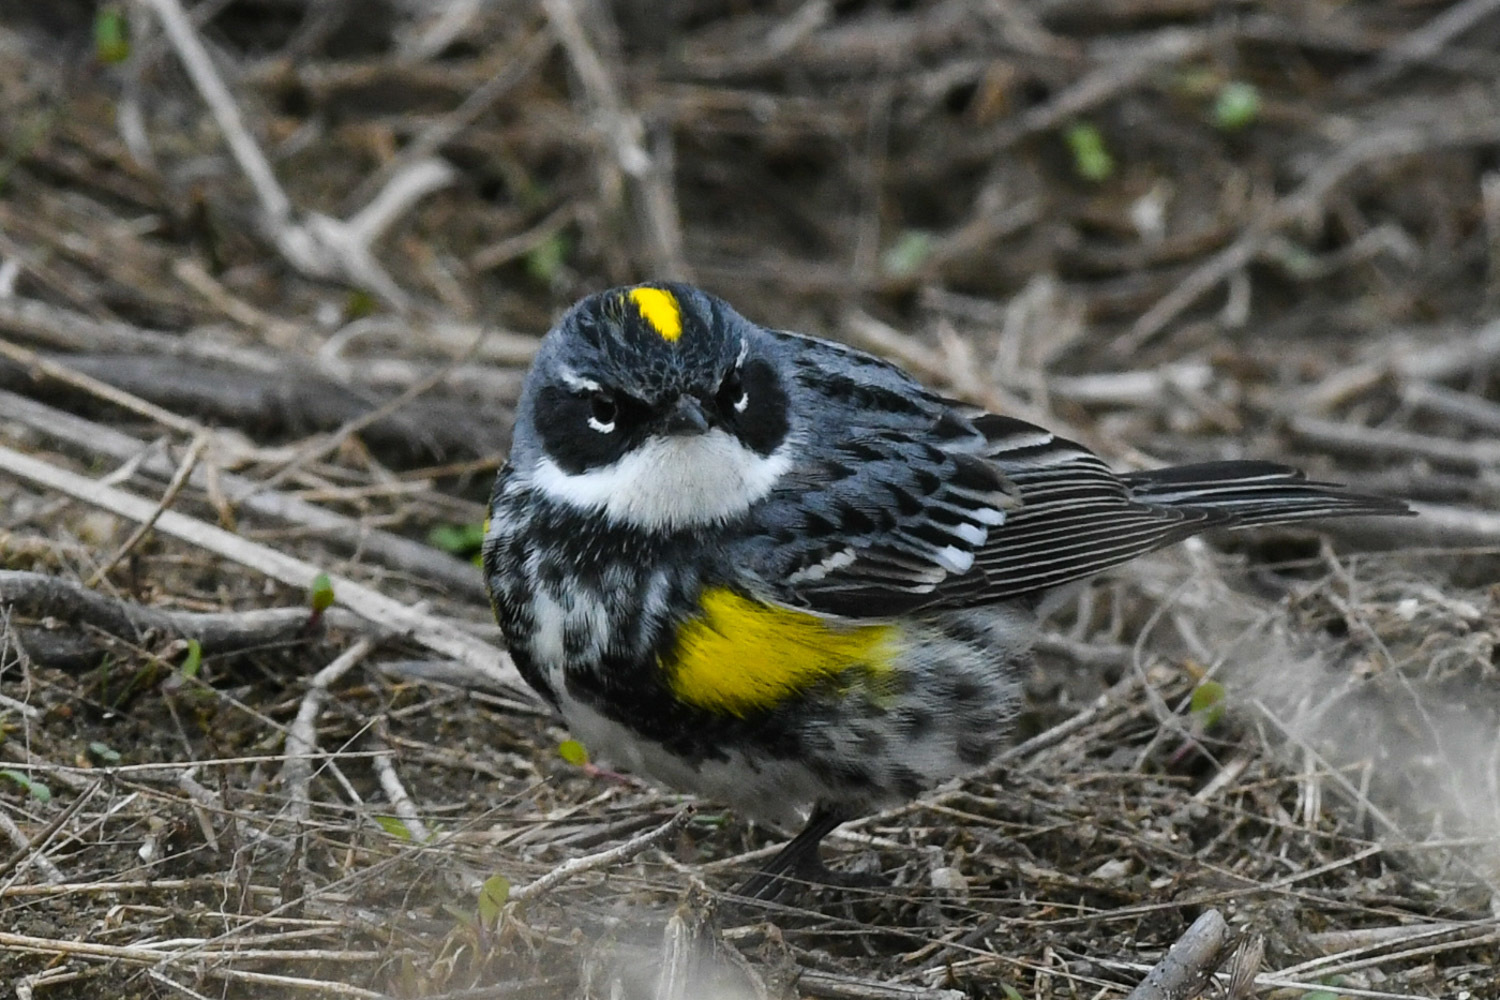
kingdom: Animalia
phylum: Chordata
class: Aves
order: Passeriformes
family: Parulidae
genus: Setophaga
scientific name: Setophaga coronata
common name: Myrtle warbler
